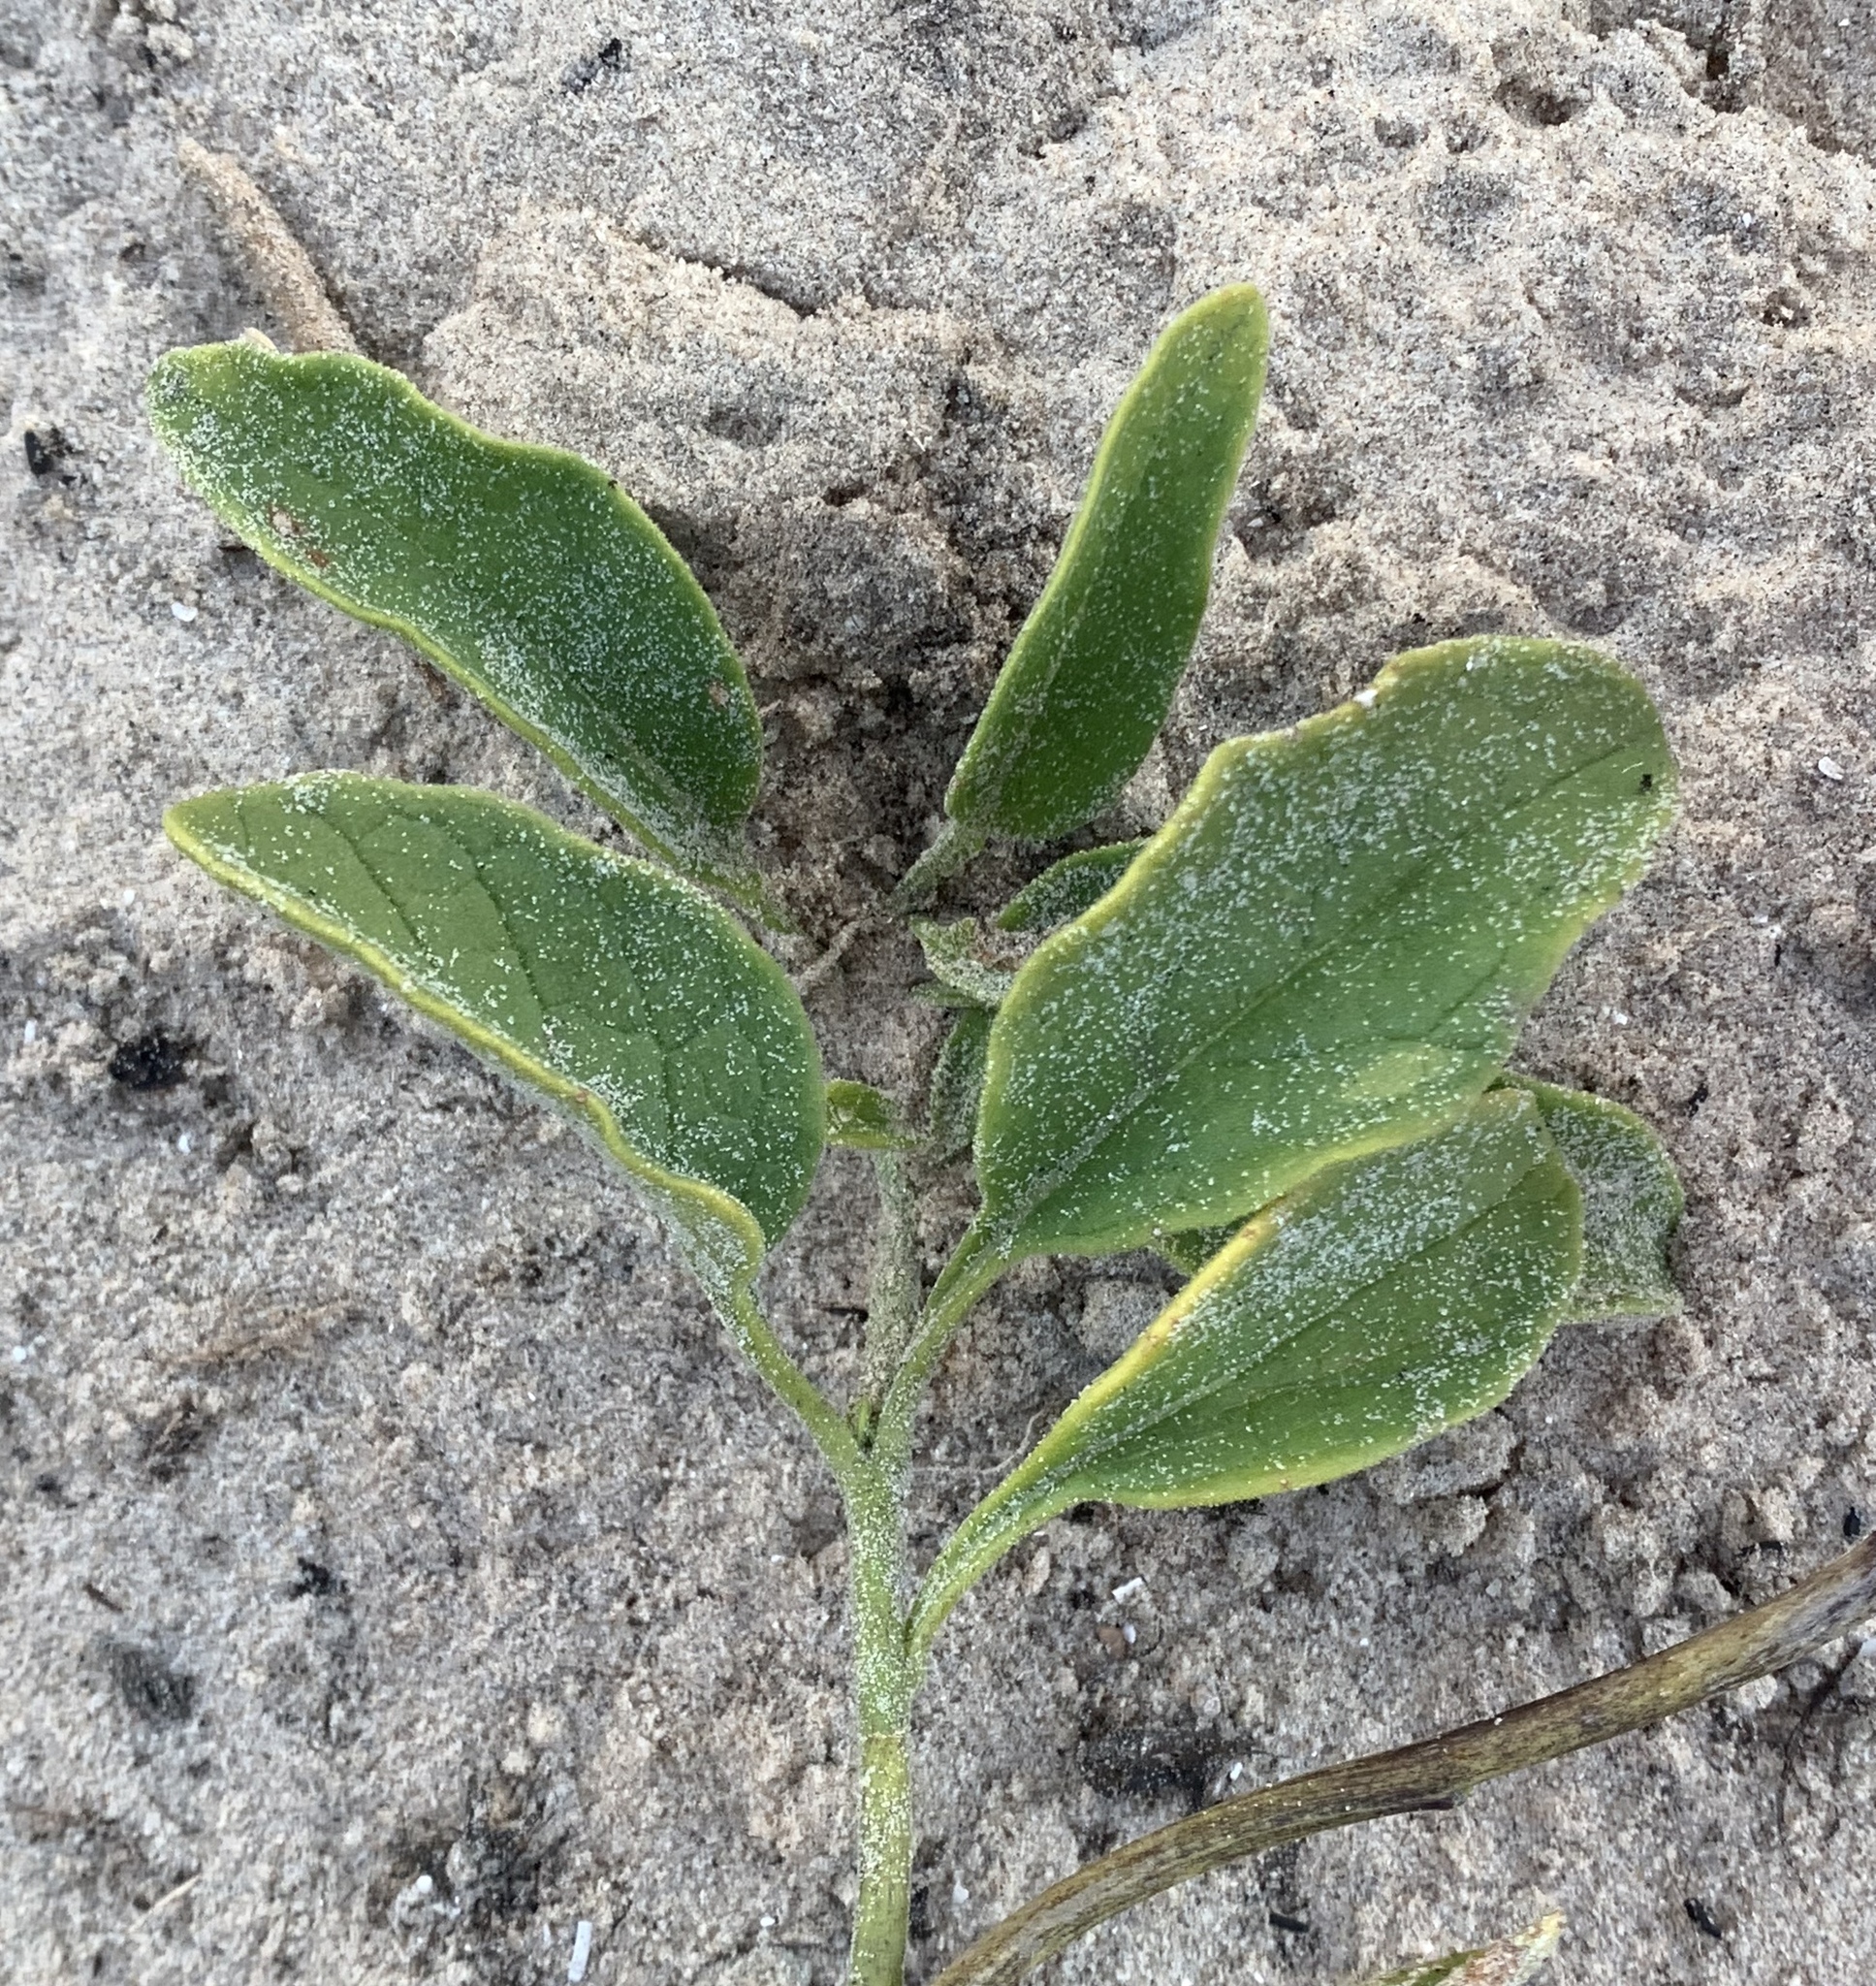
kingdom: Plantae
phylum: Tracheophyta
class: Magnoliopsida
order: Solanales
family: Solanaceae
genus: Physalis
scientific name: Physalis cinerascens
